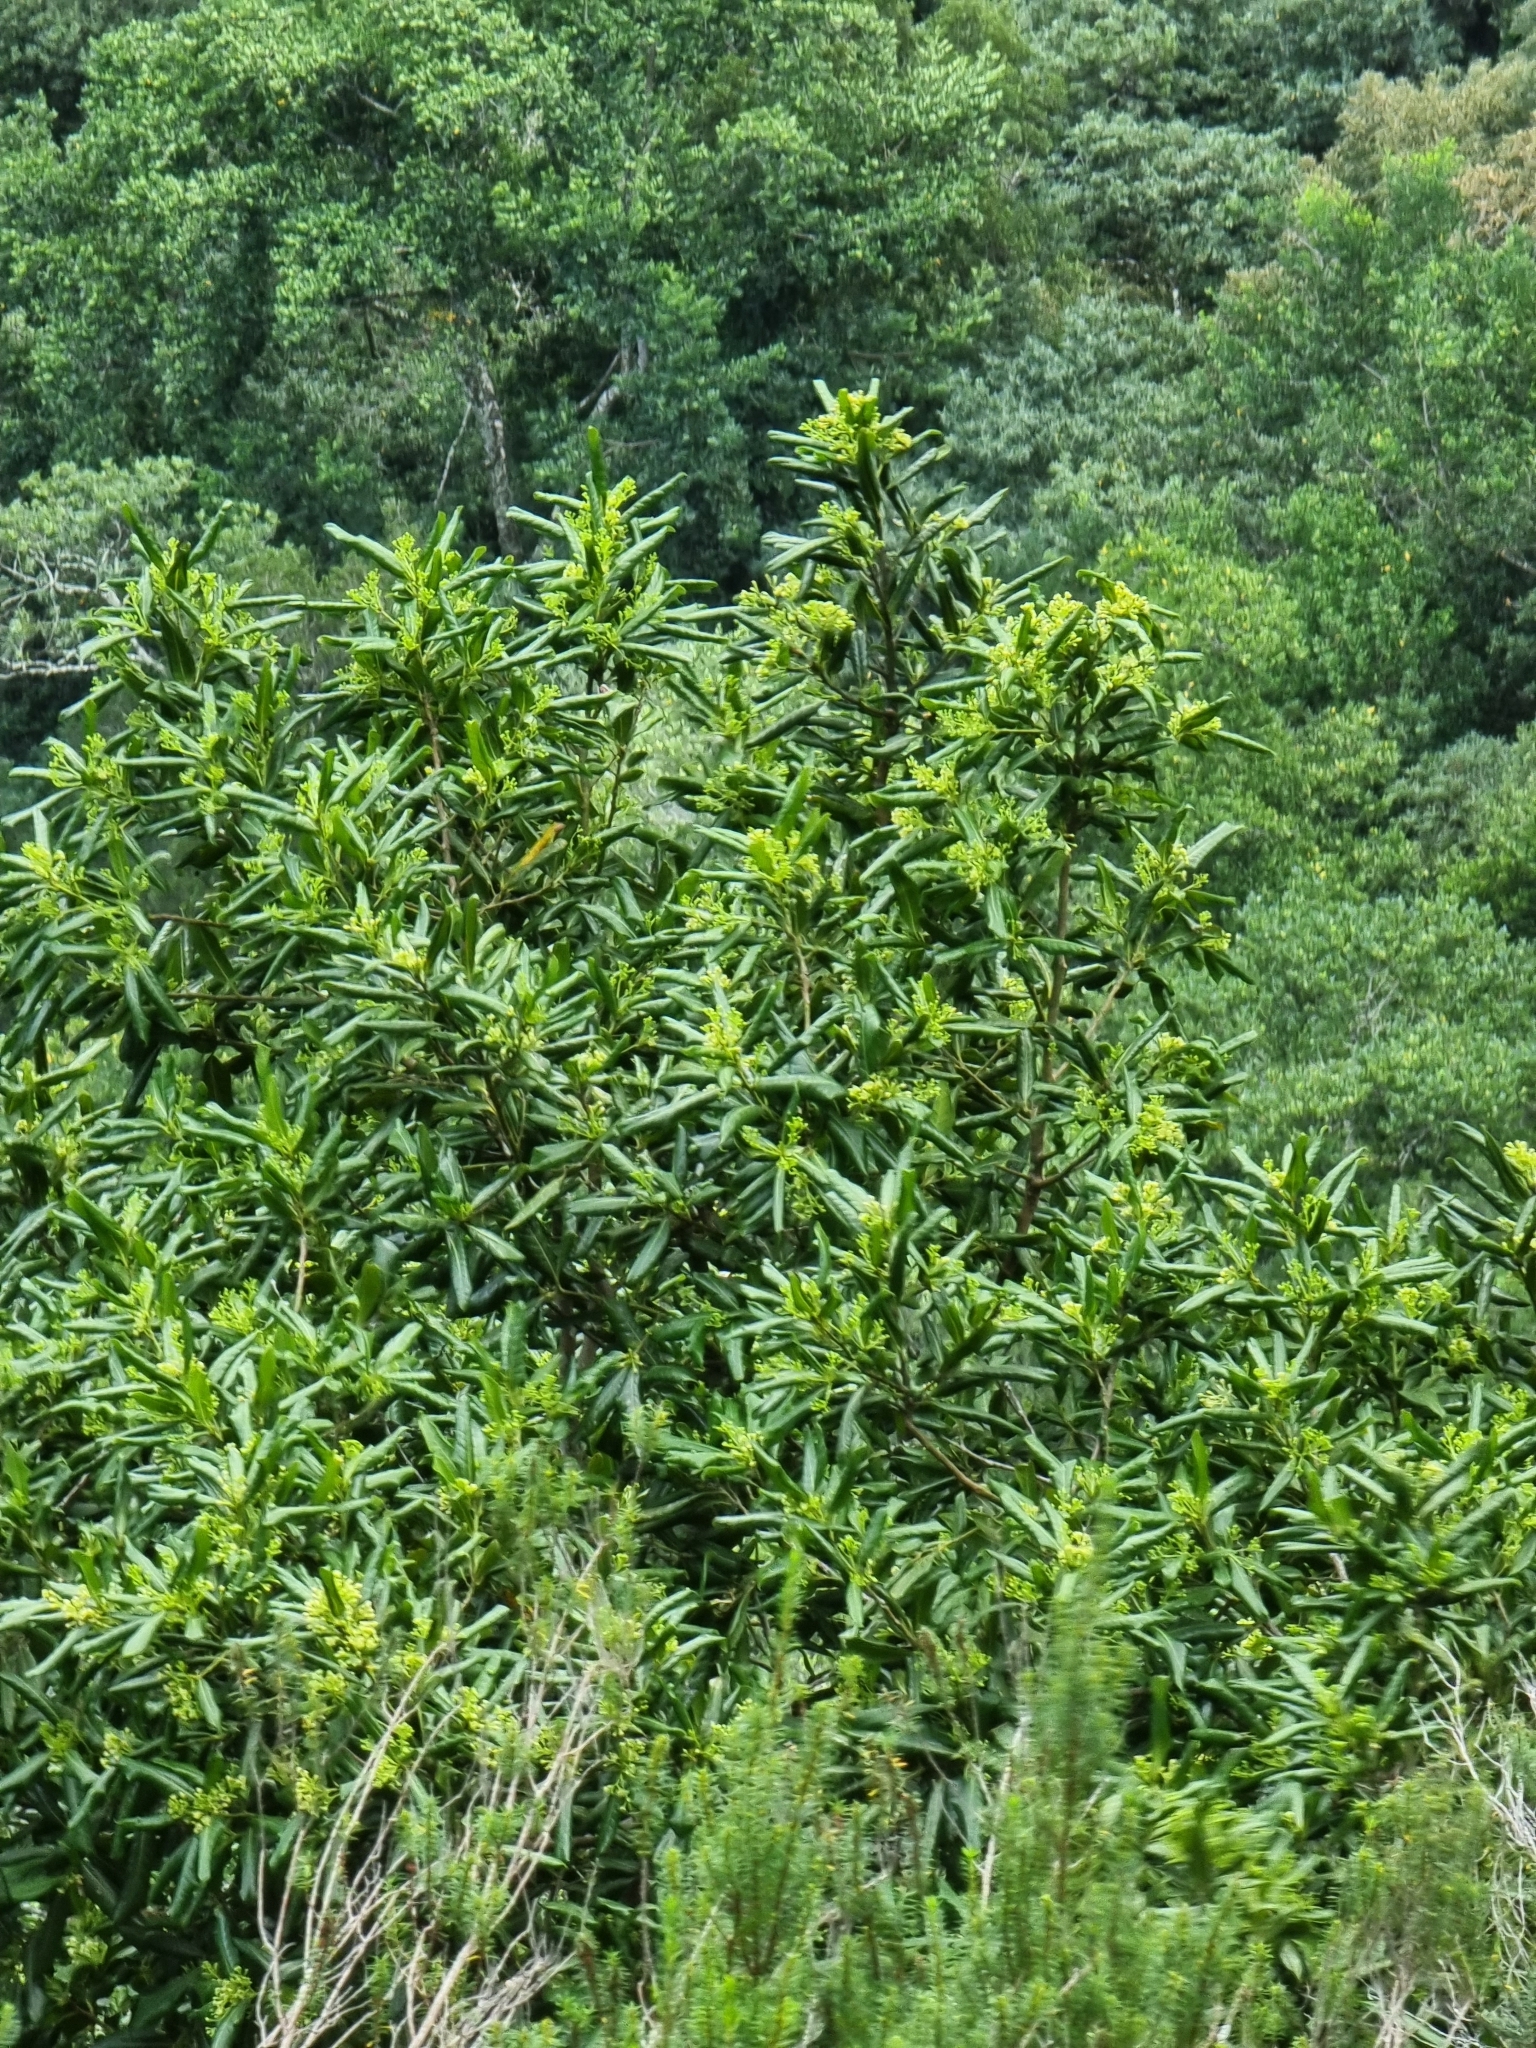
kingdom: Plantae
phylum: Tracheophyta
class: Magnoliopsida
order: Laurales
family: Lauraceae
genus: Apollonias
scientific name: Apollonias barbujana
